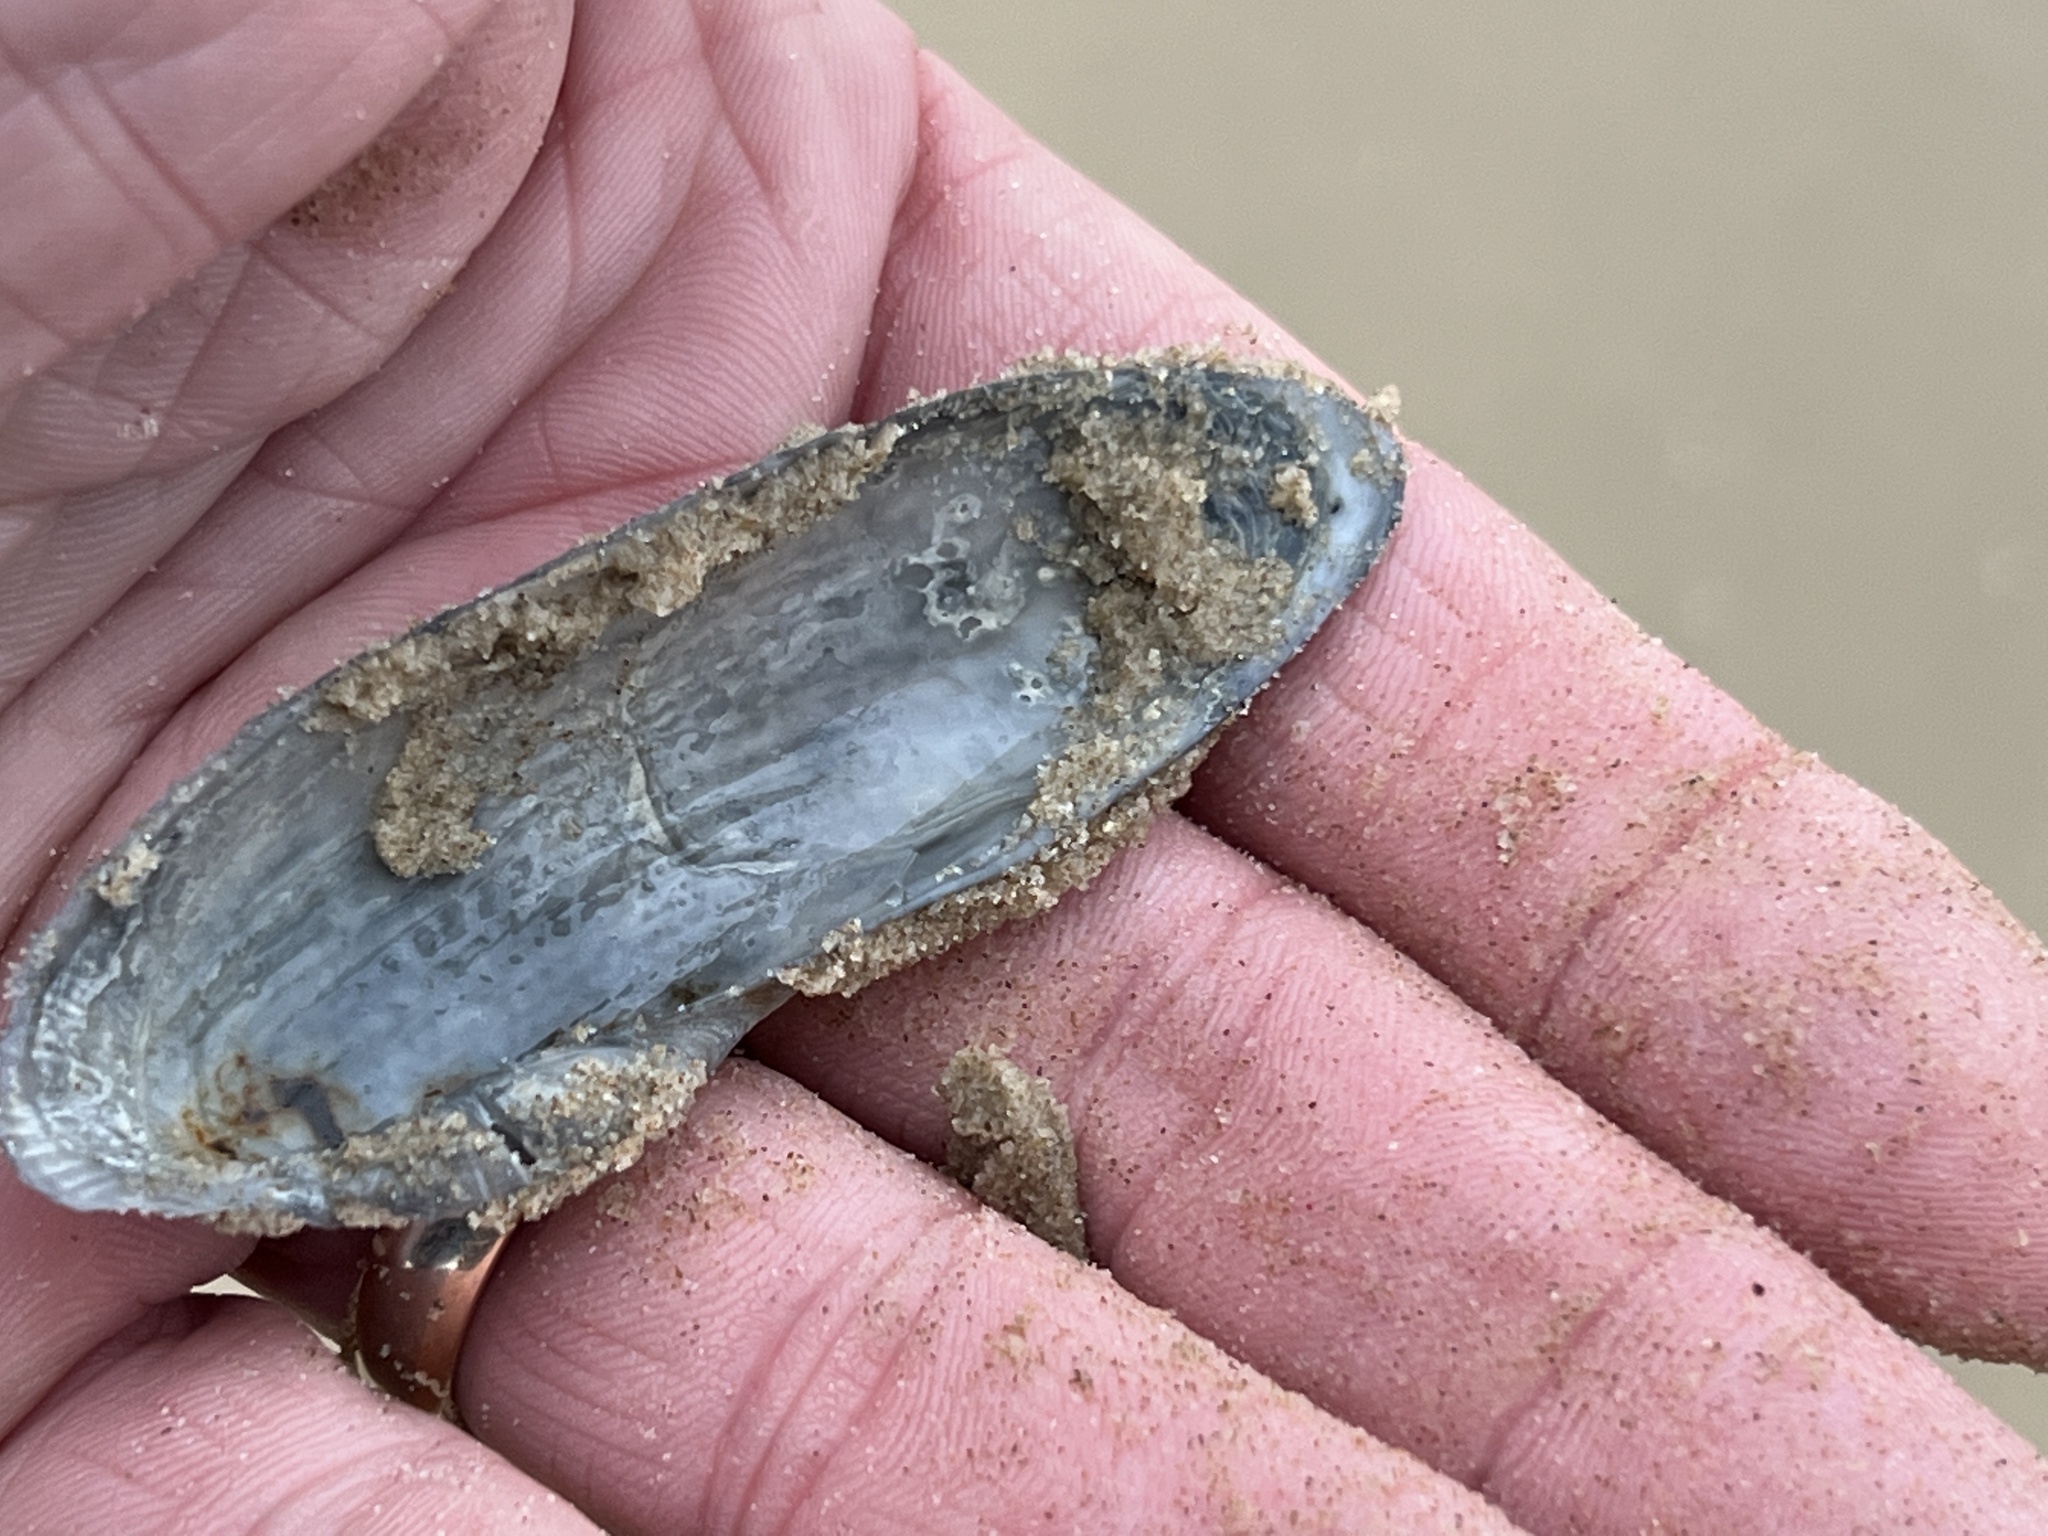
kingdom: Animalia
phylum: Mollusca
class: Bivalvia
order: Myida
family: Pholadidae
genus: Pholas
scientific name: Pholas campechiensis
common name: Campeche angel wing
